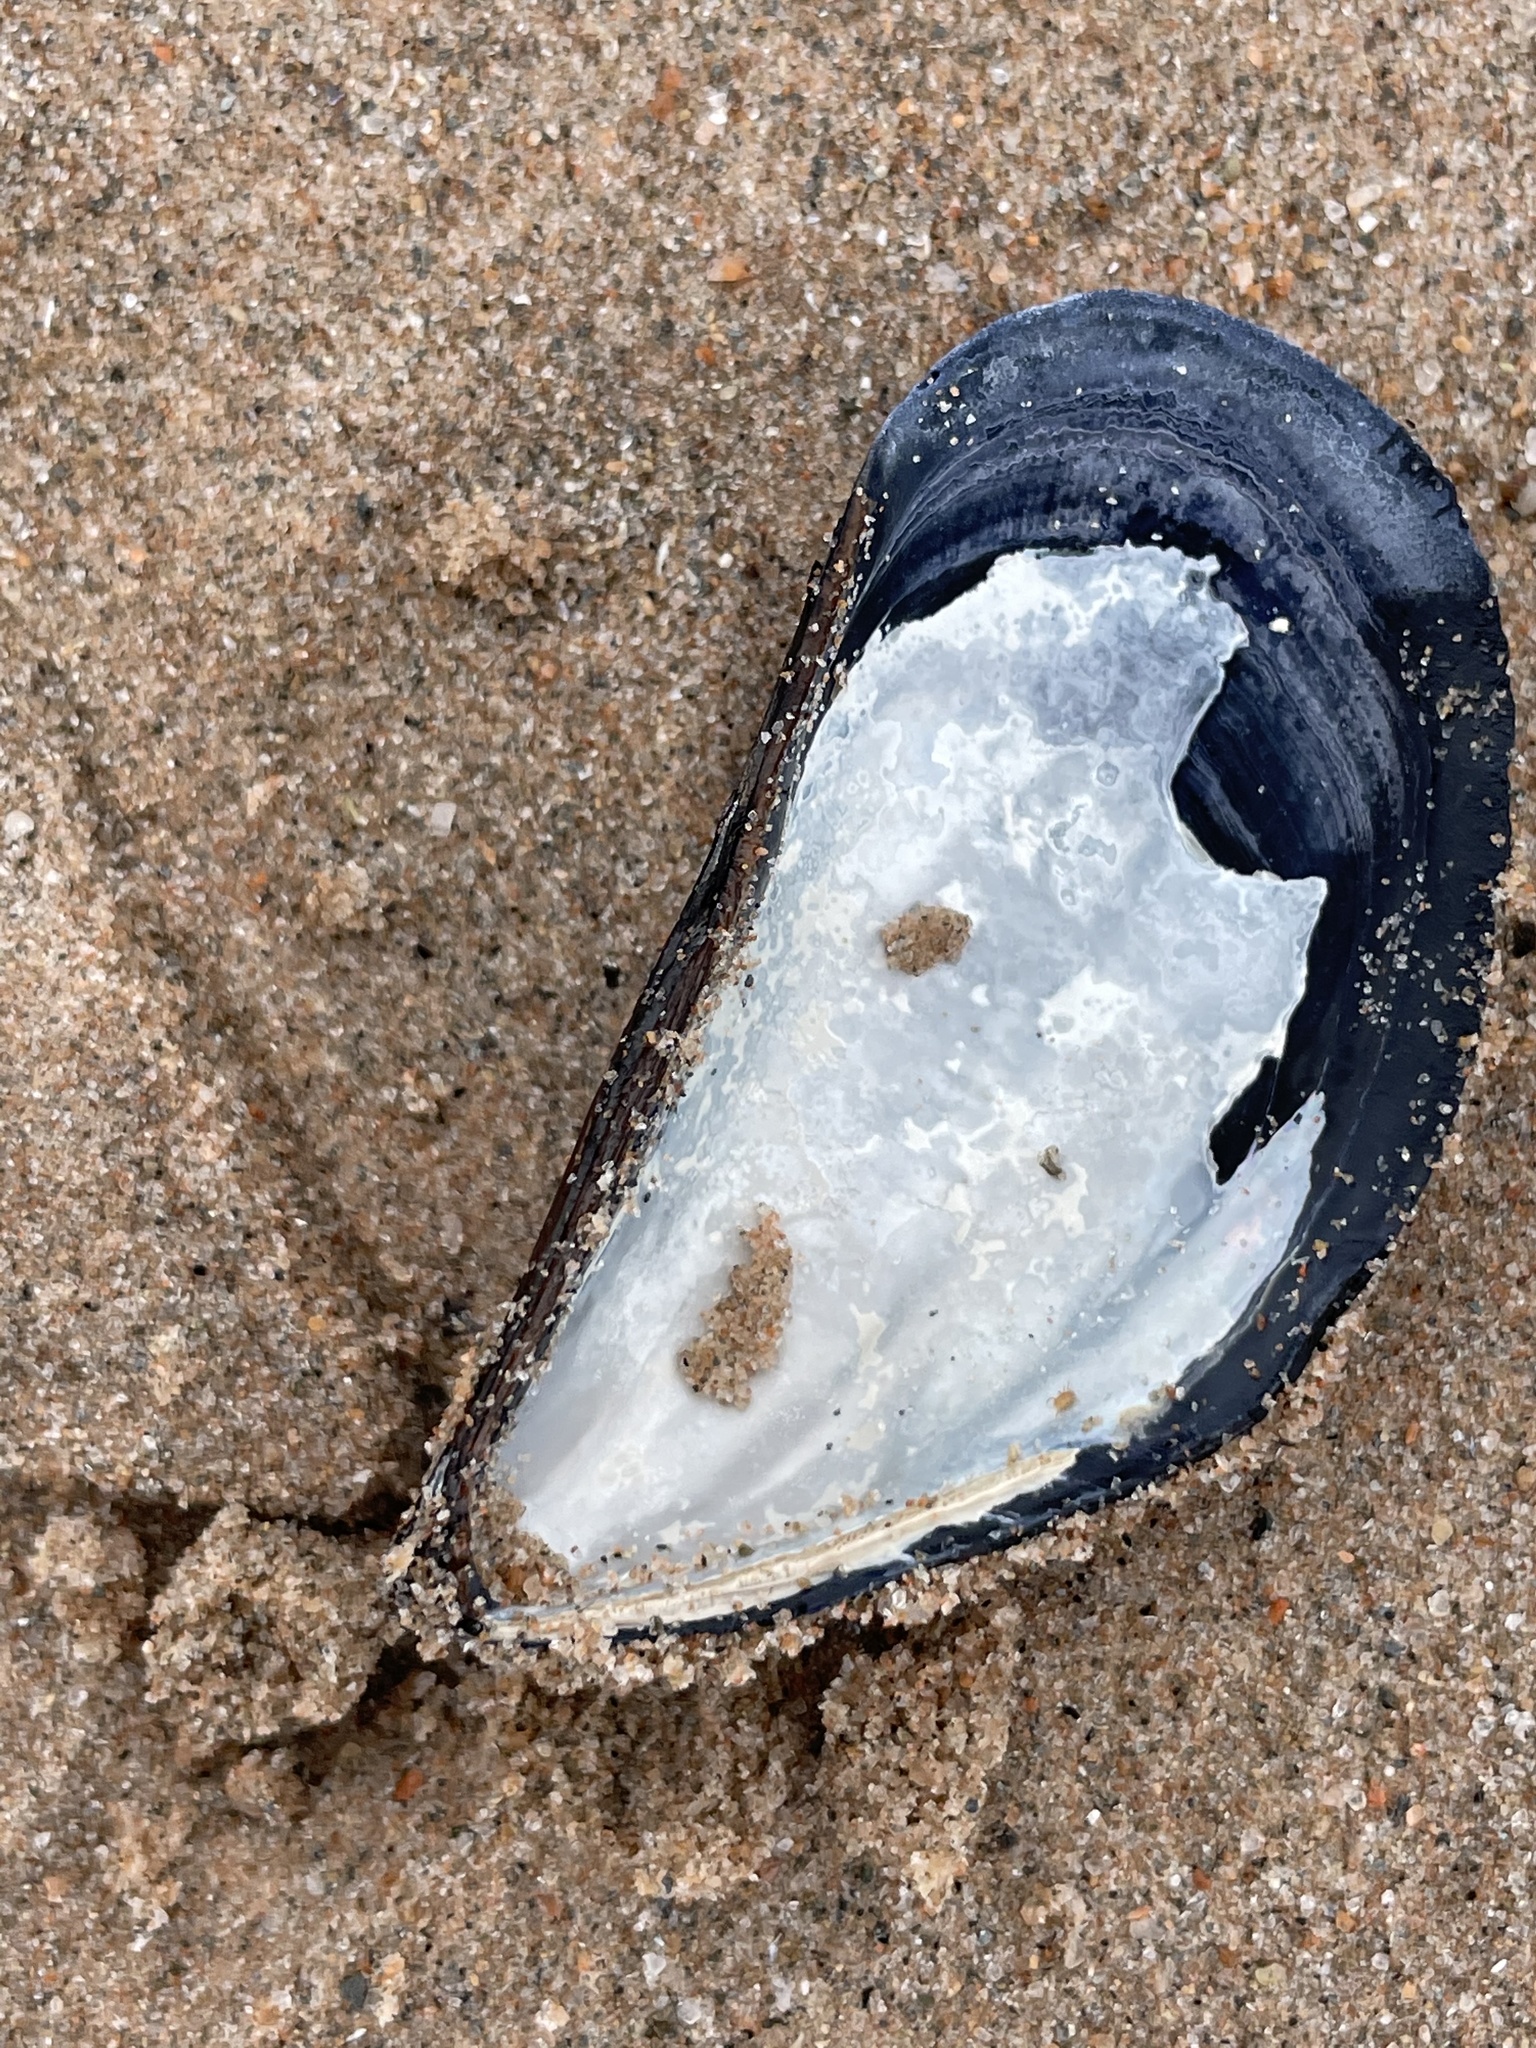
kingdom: Animalia
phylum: Mollusca
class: Bivalvia
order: Mytilida
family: Mytilidae
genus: Mytilus
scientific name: Mytilus edulis
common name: Blue mussel
